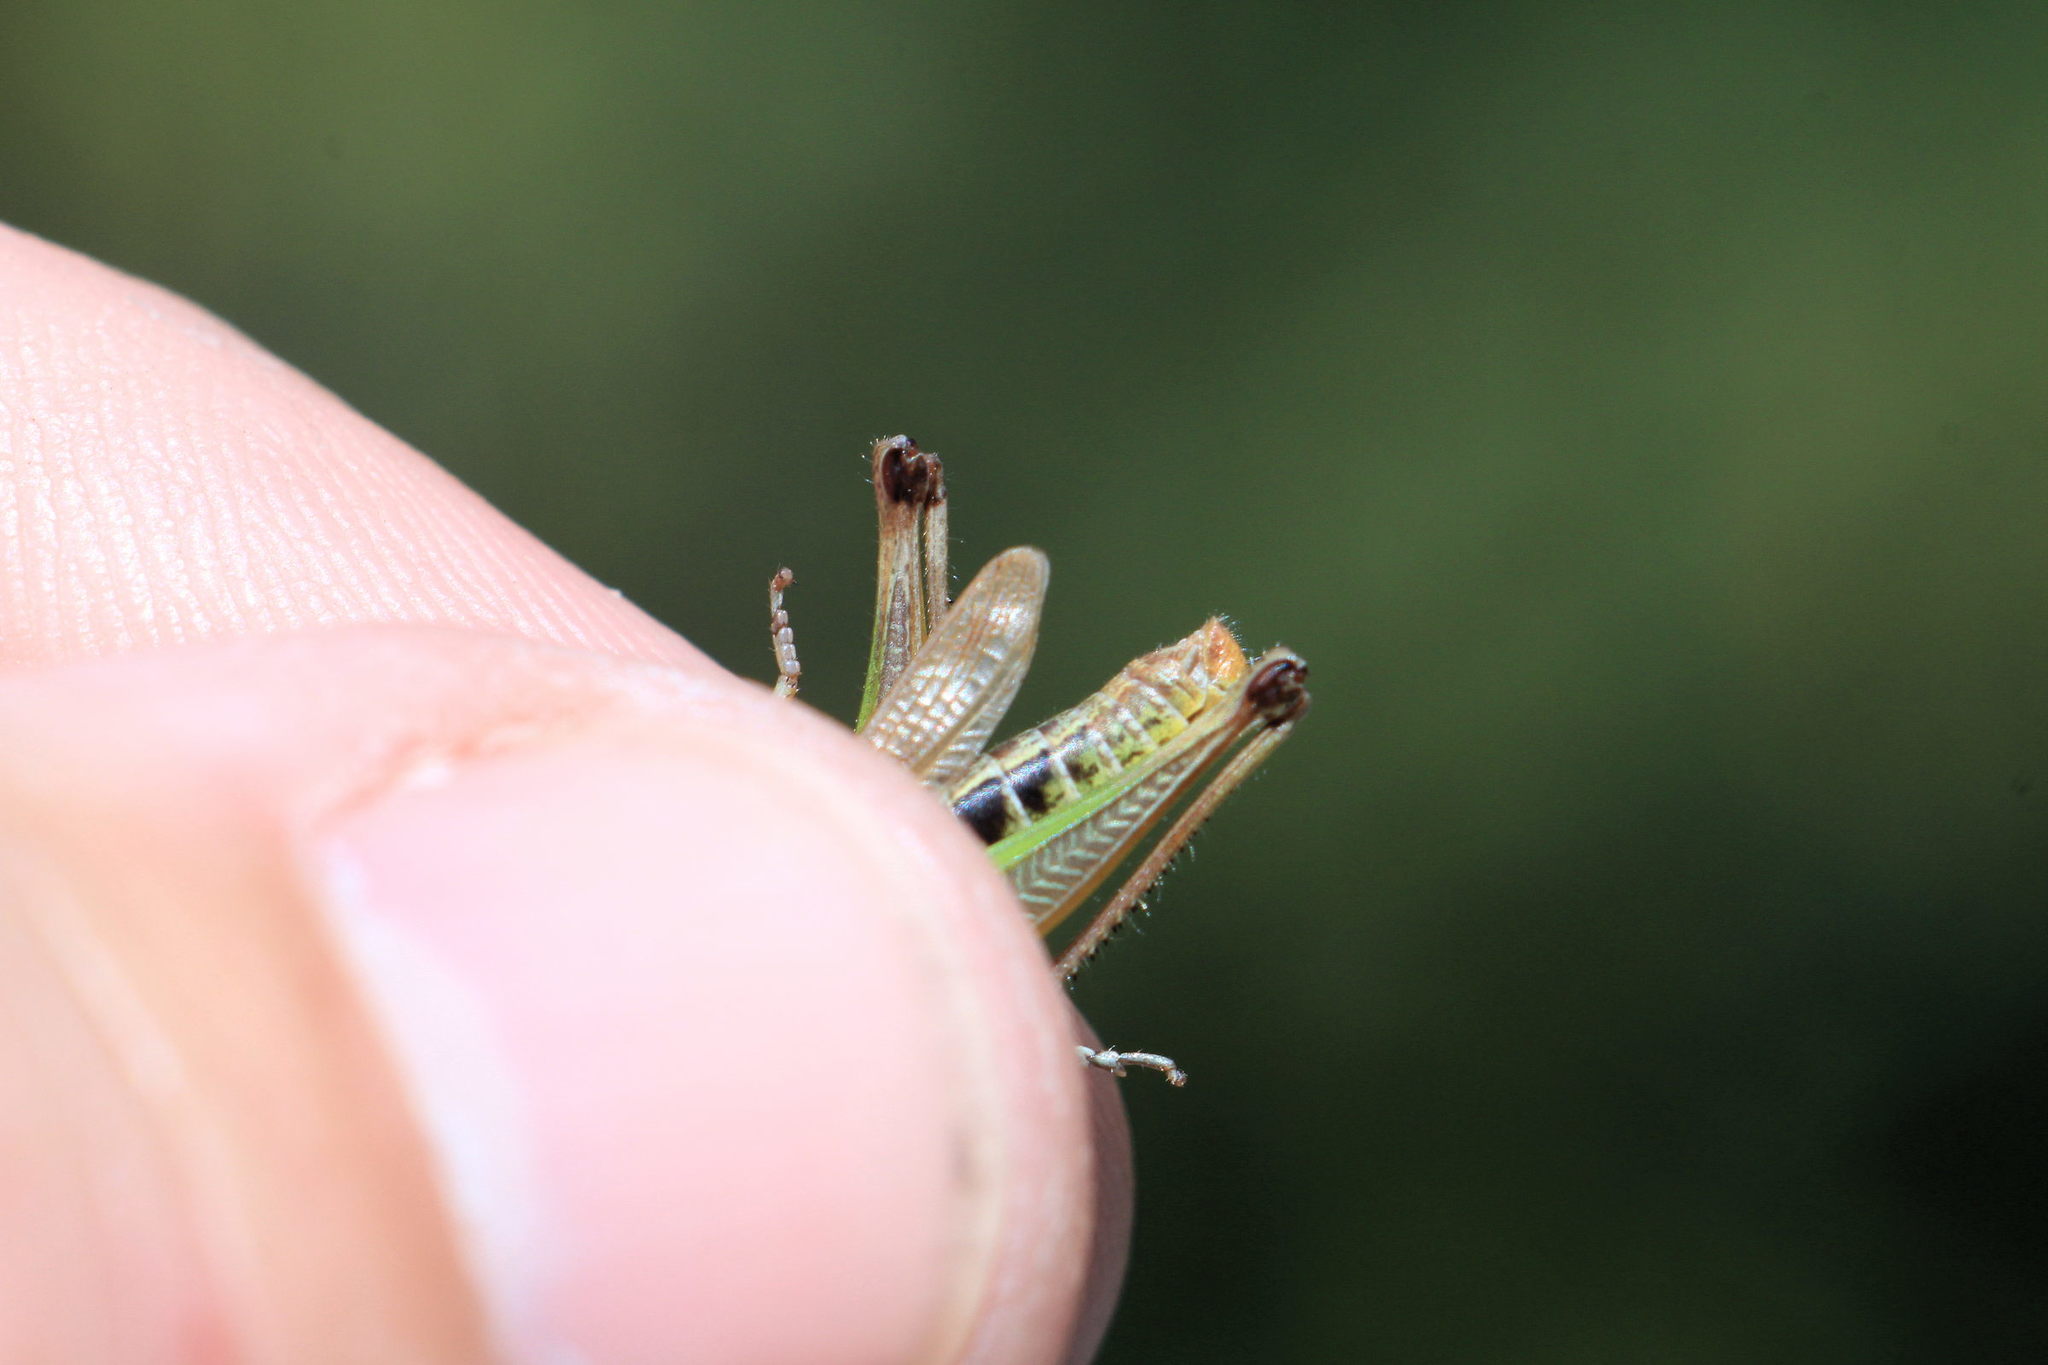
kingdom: Animalia
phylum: Arthropoda
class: Insecta
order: Orthoptera
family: Acrididae
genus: Pseudochorthippus
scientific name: Pseudochorthippus parallelus
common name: Meadow grasshopper
